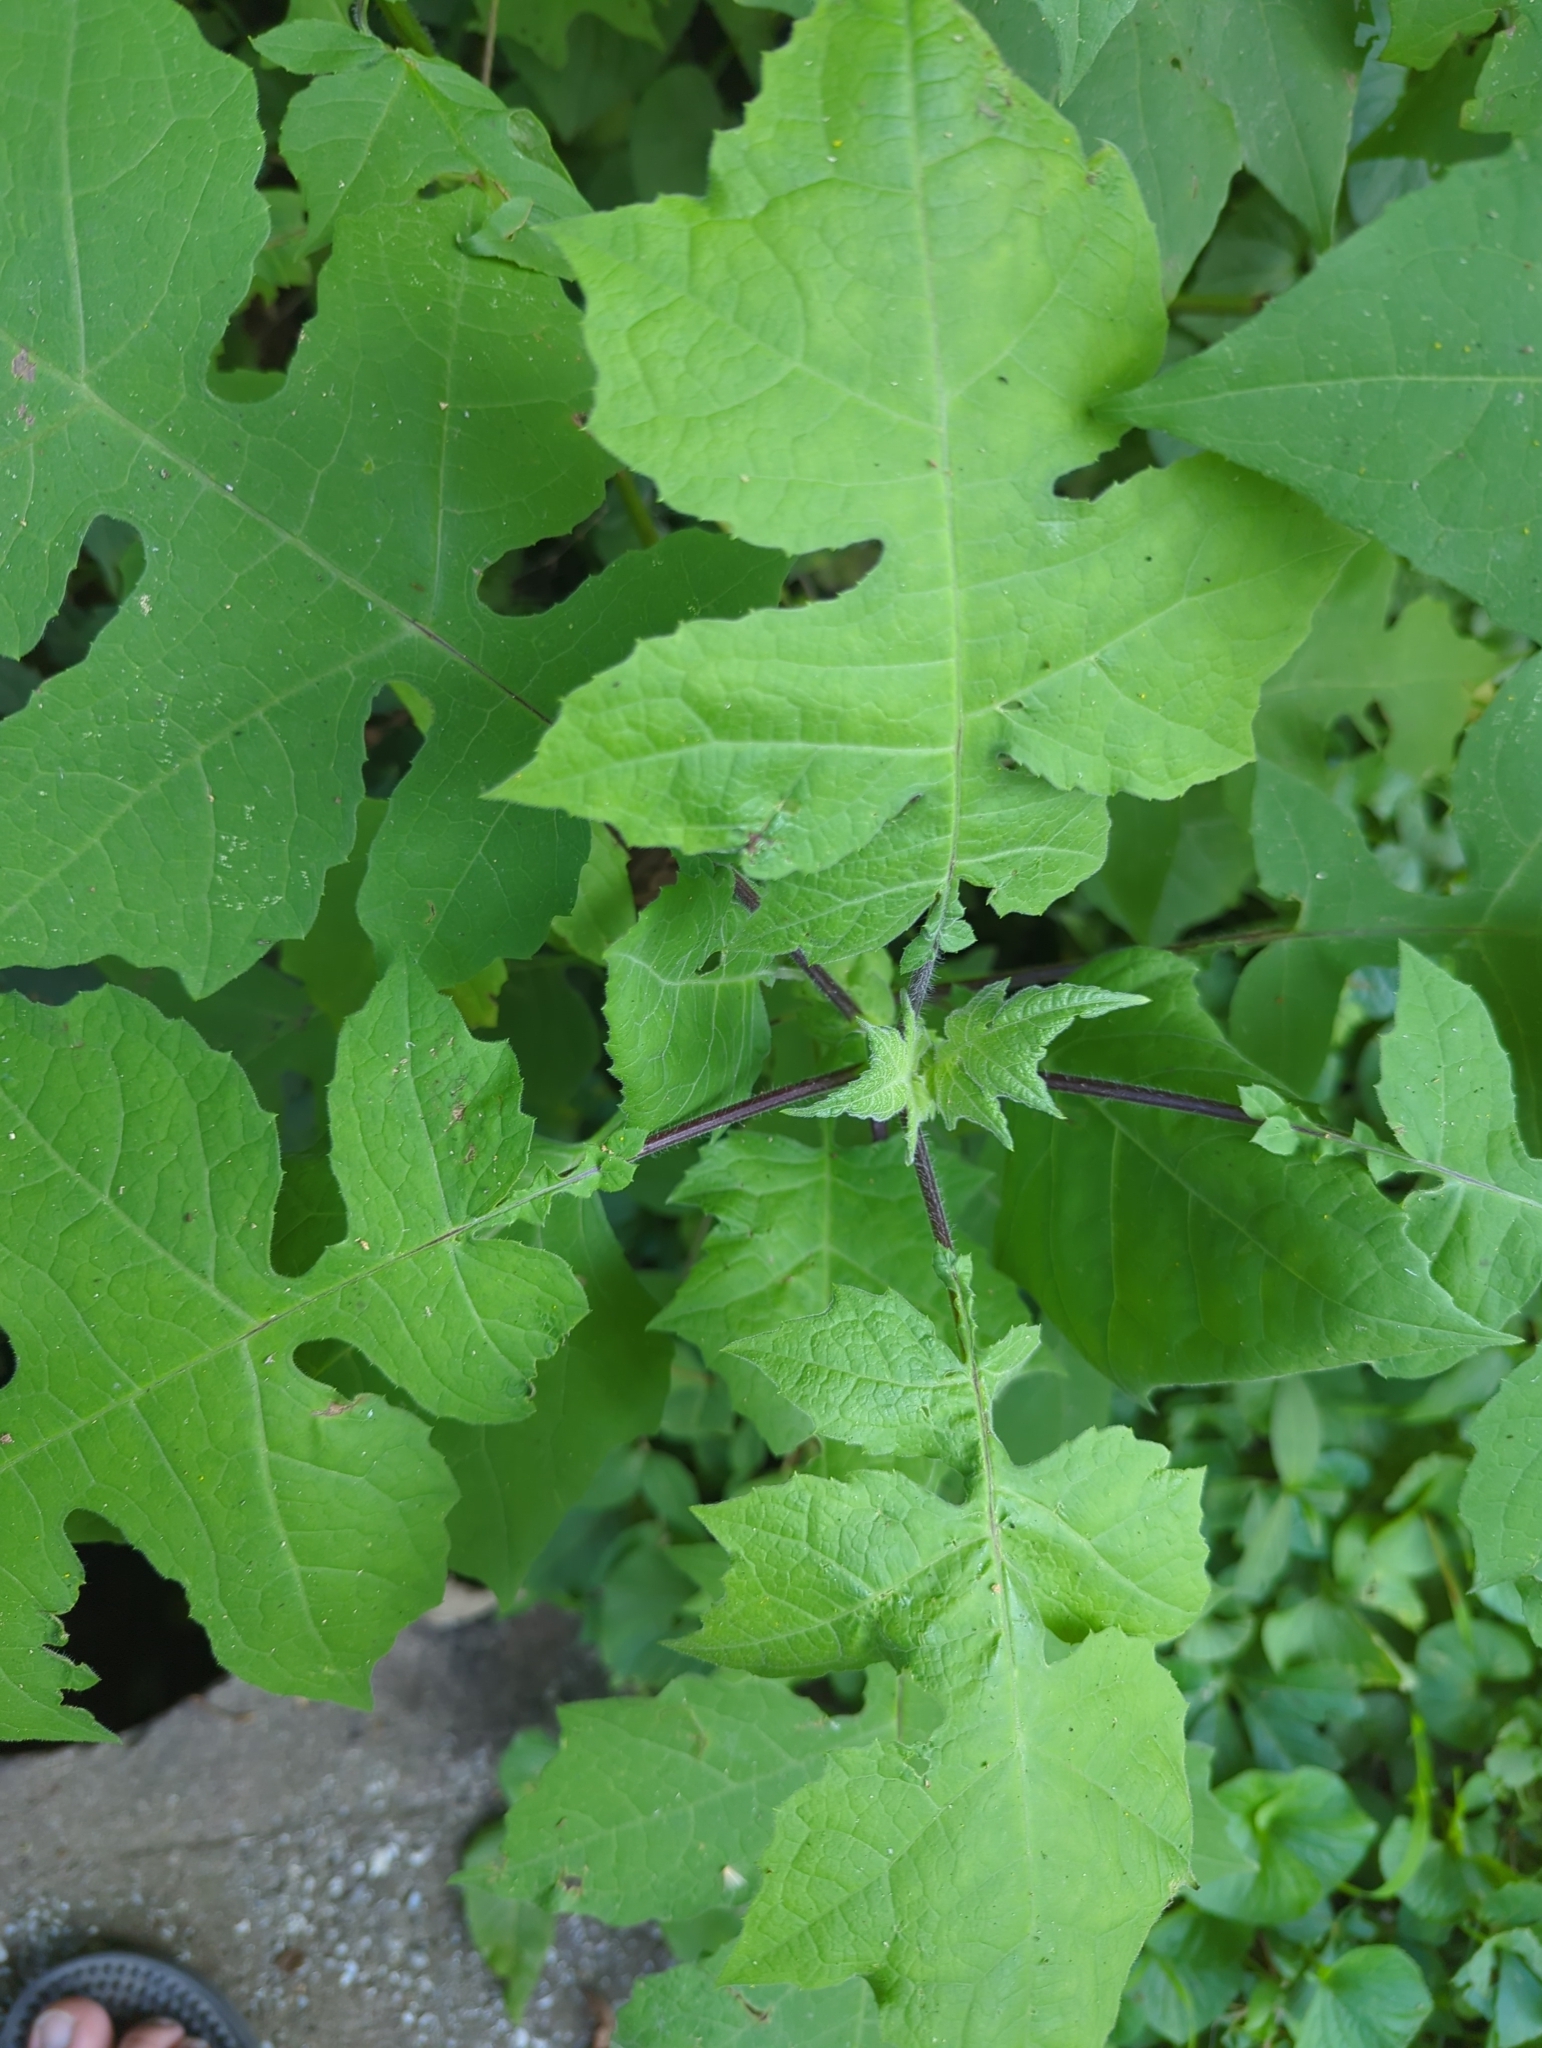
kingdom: Plantae
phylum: Tracheophyta
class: Magnoliopsida
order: Asterales
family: Asteraceae
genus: Polymnia
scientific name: Polymnia canadensis
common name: Pale-flowered leafcup
